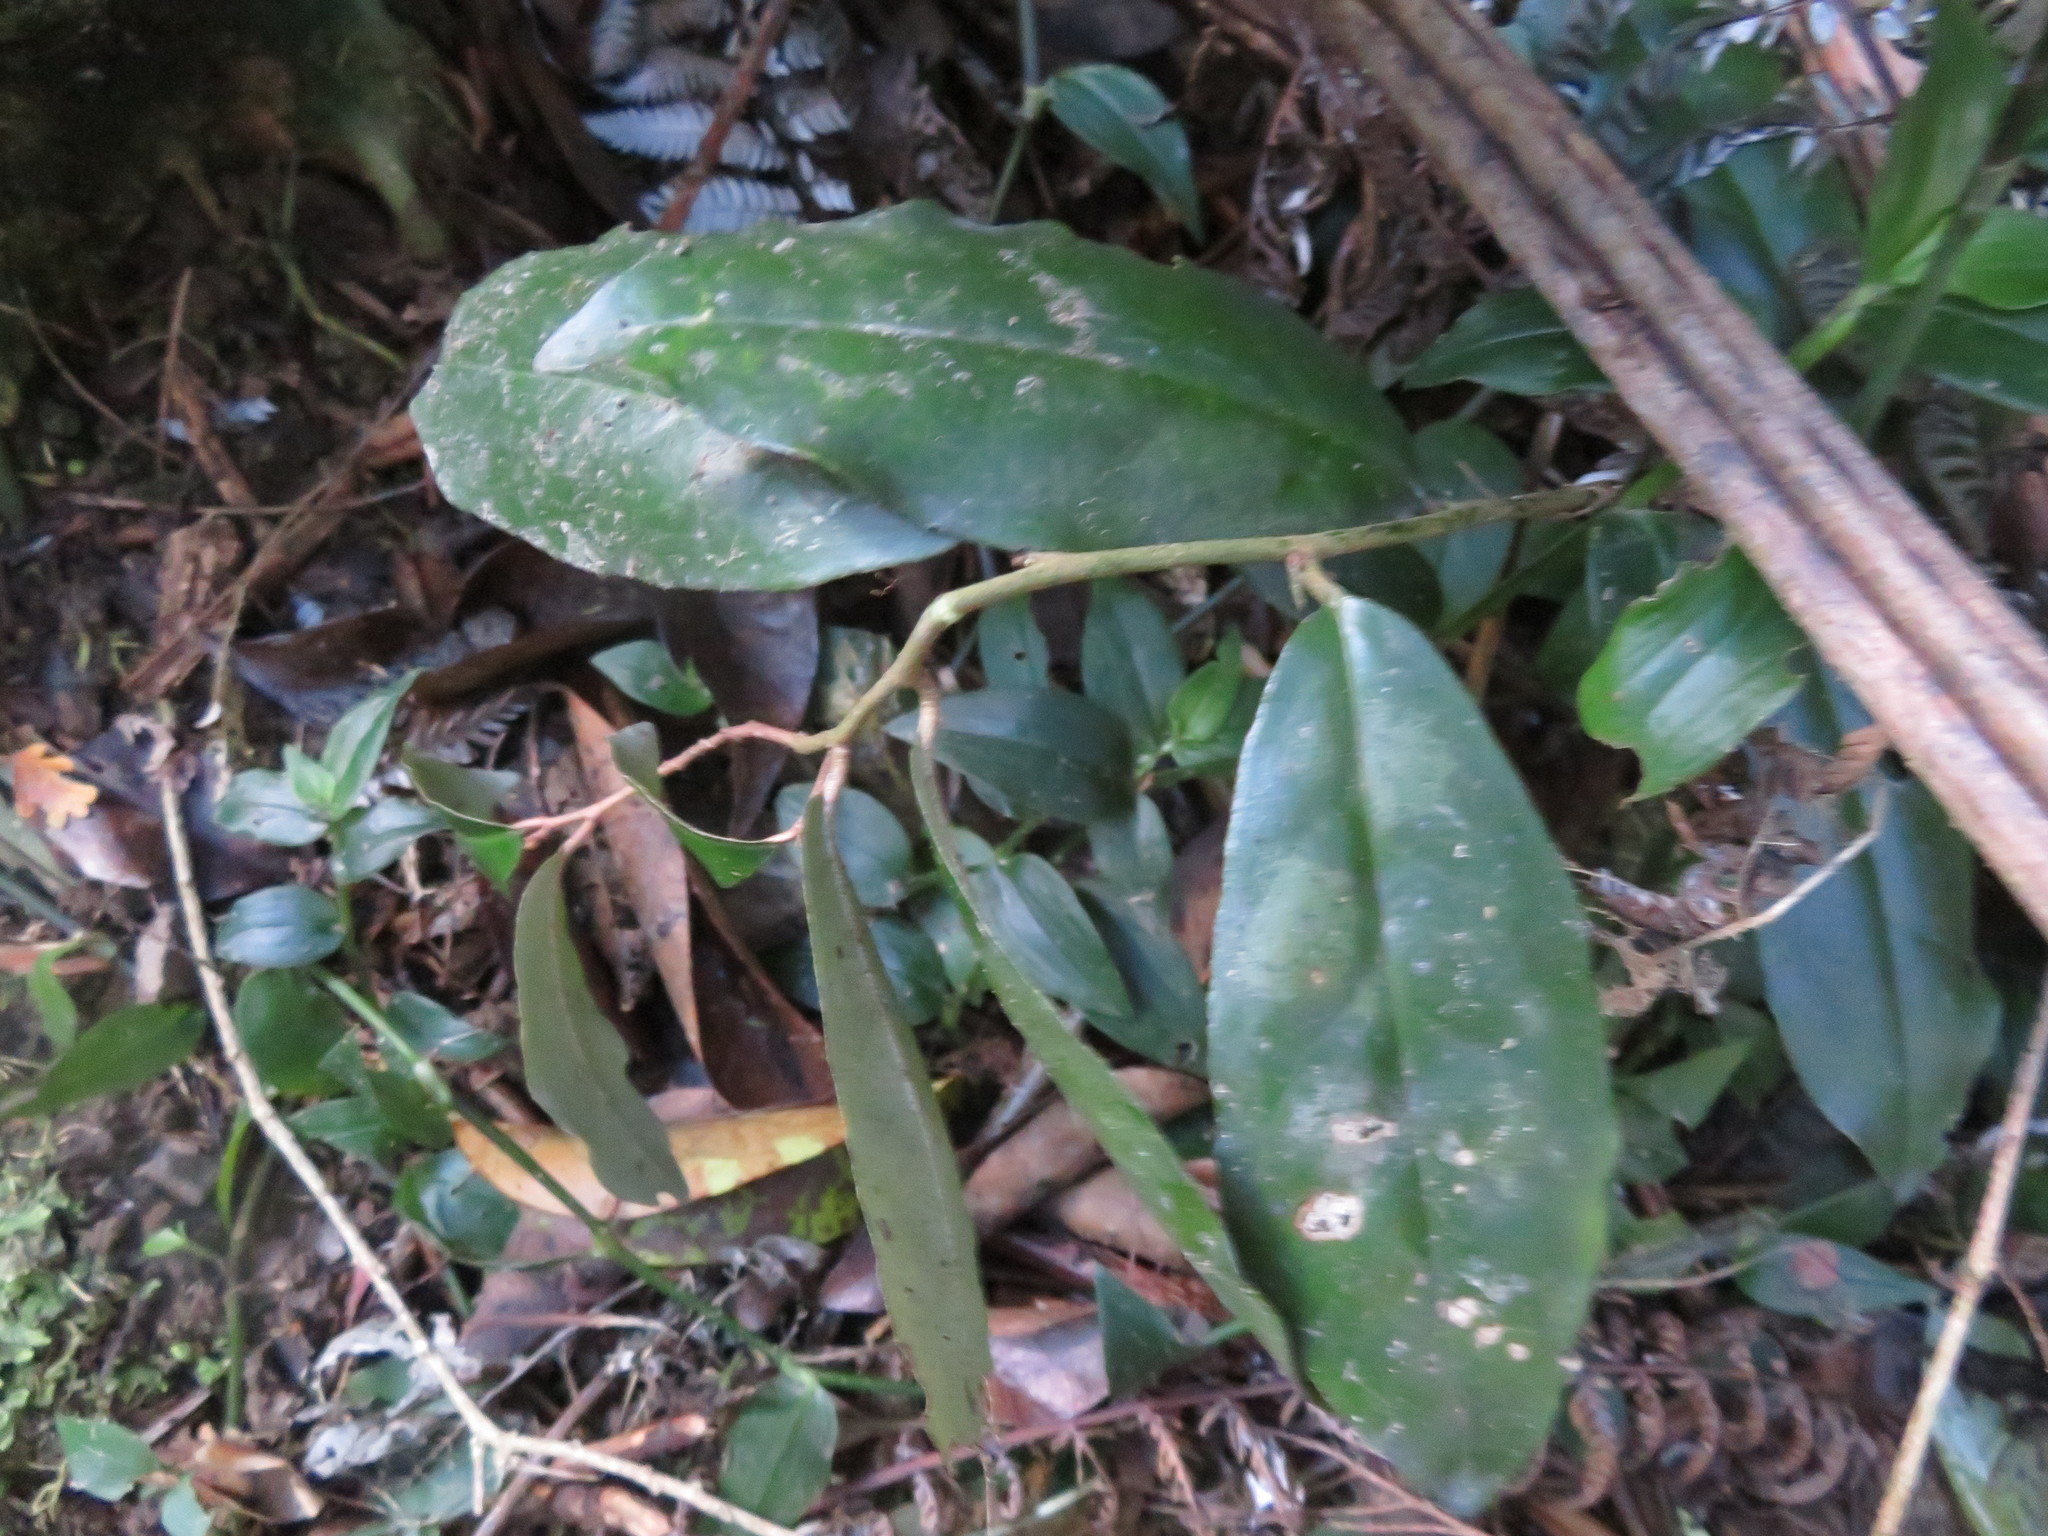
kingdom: Plantae
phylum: Tracheophyta
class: Magnoliopsida
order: Rosales
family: Elaeagnaceae
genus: Elaeagnus
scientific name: Elaeagnus reflexa
